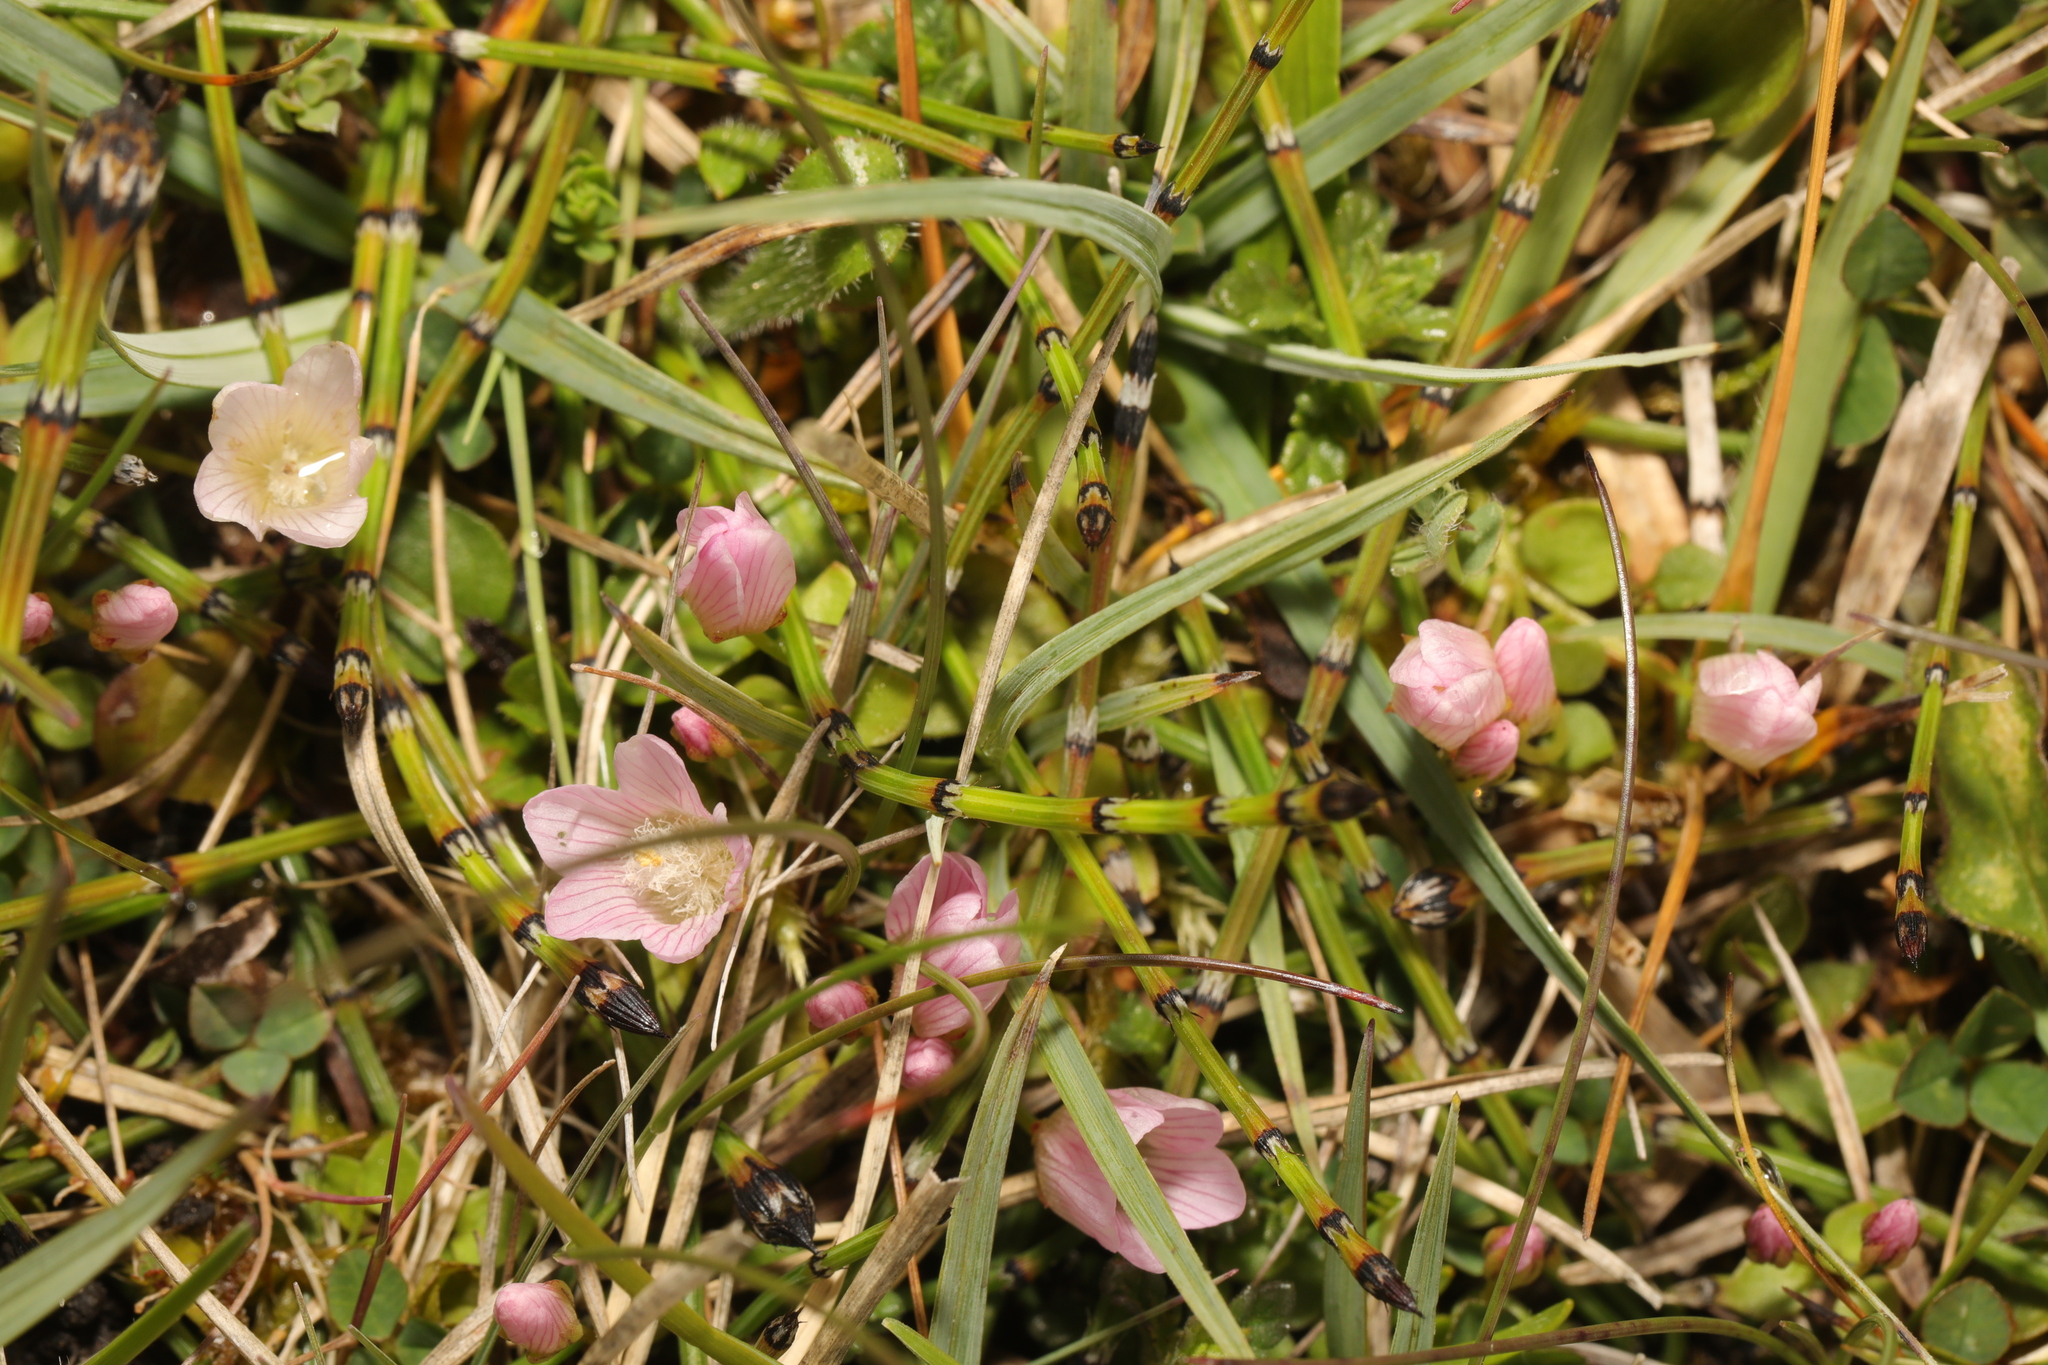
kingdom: Plantae
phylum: Tracheophyta
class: Magnoliopsida
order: Ericales
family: Primulaceae
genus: Lysimachia
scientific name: Lysimachia tenella
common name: European bog pimpernel
